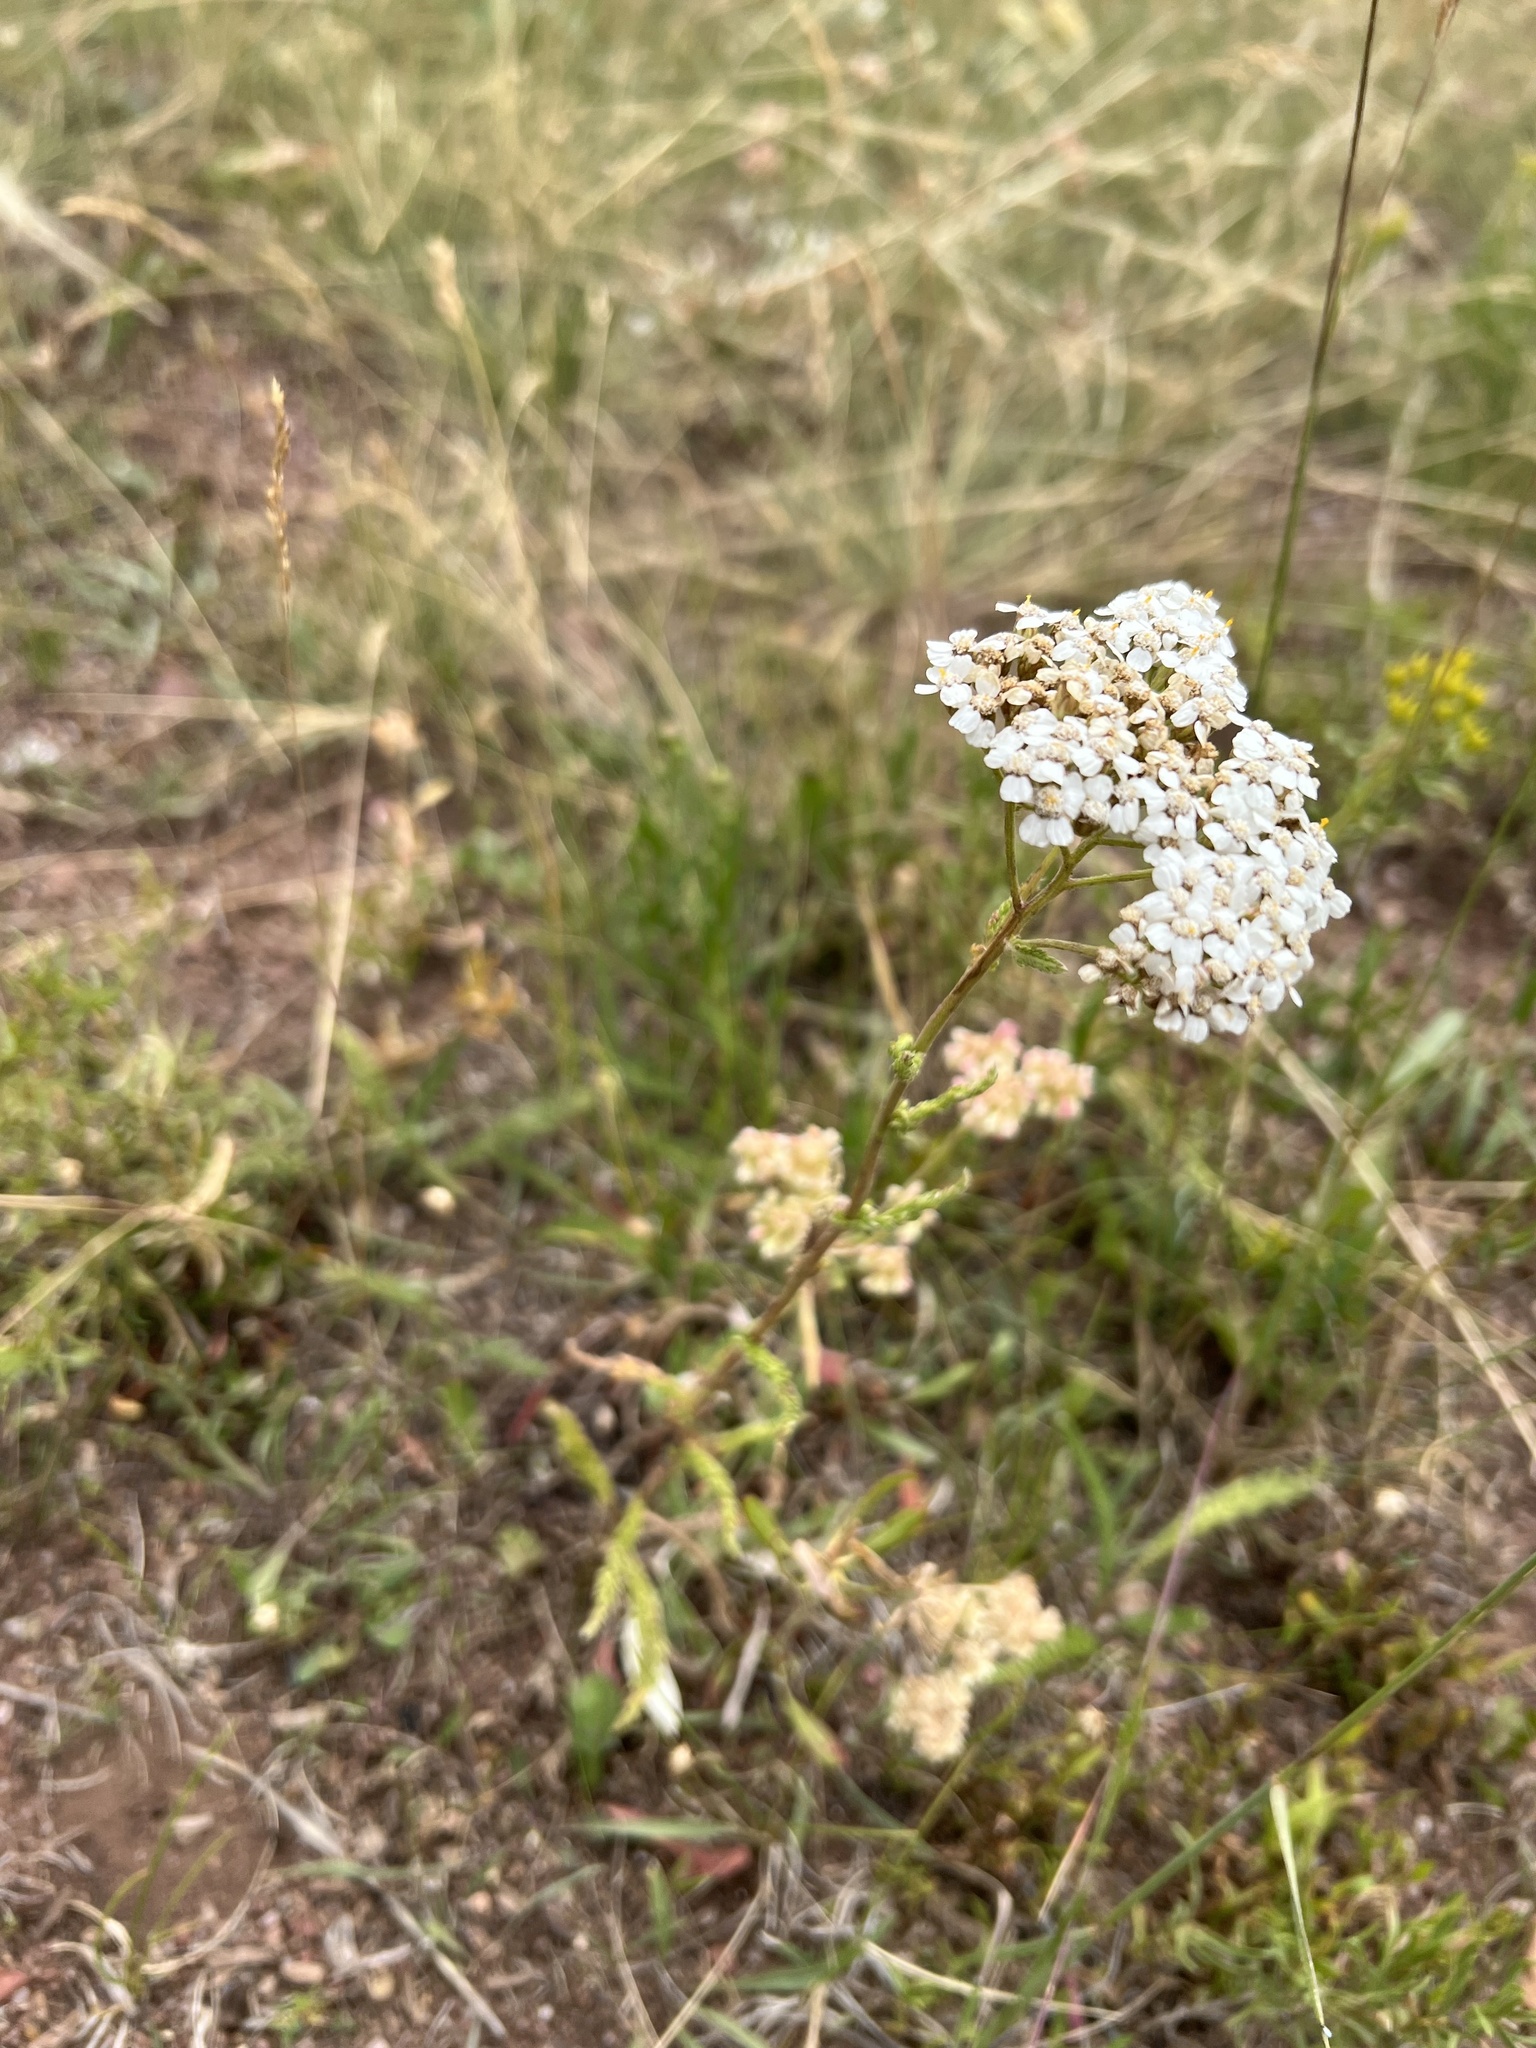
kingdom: Plantae
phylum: Tracheophyta
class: Magnoliopsida
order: Asterales
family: Asteraceae
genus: Achillea
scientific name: Achillea millefolium
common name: Yarrow
